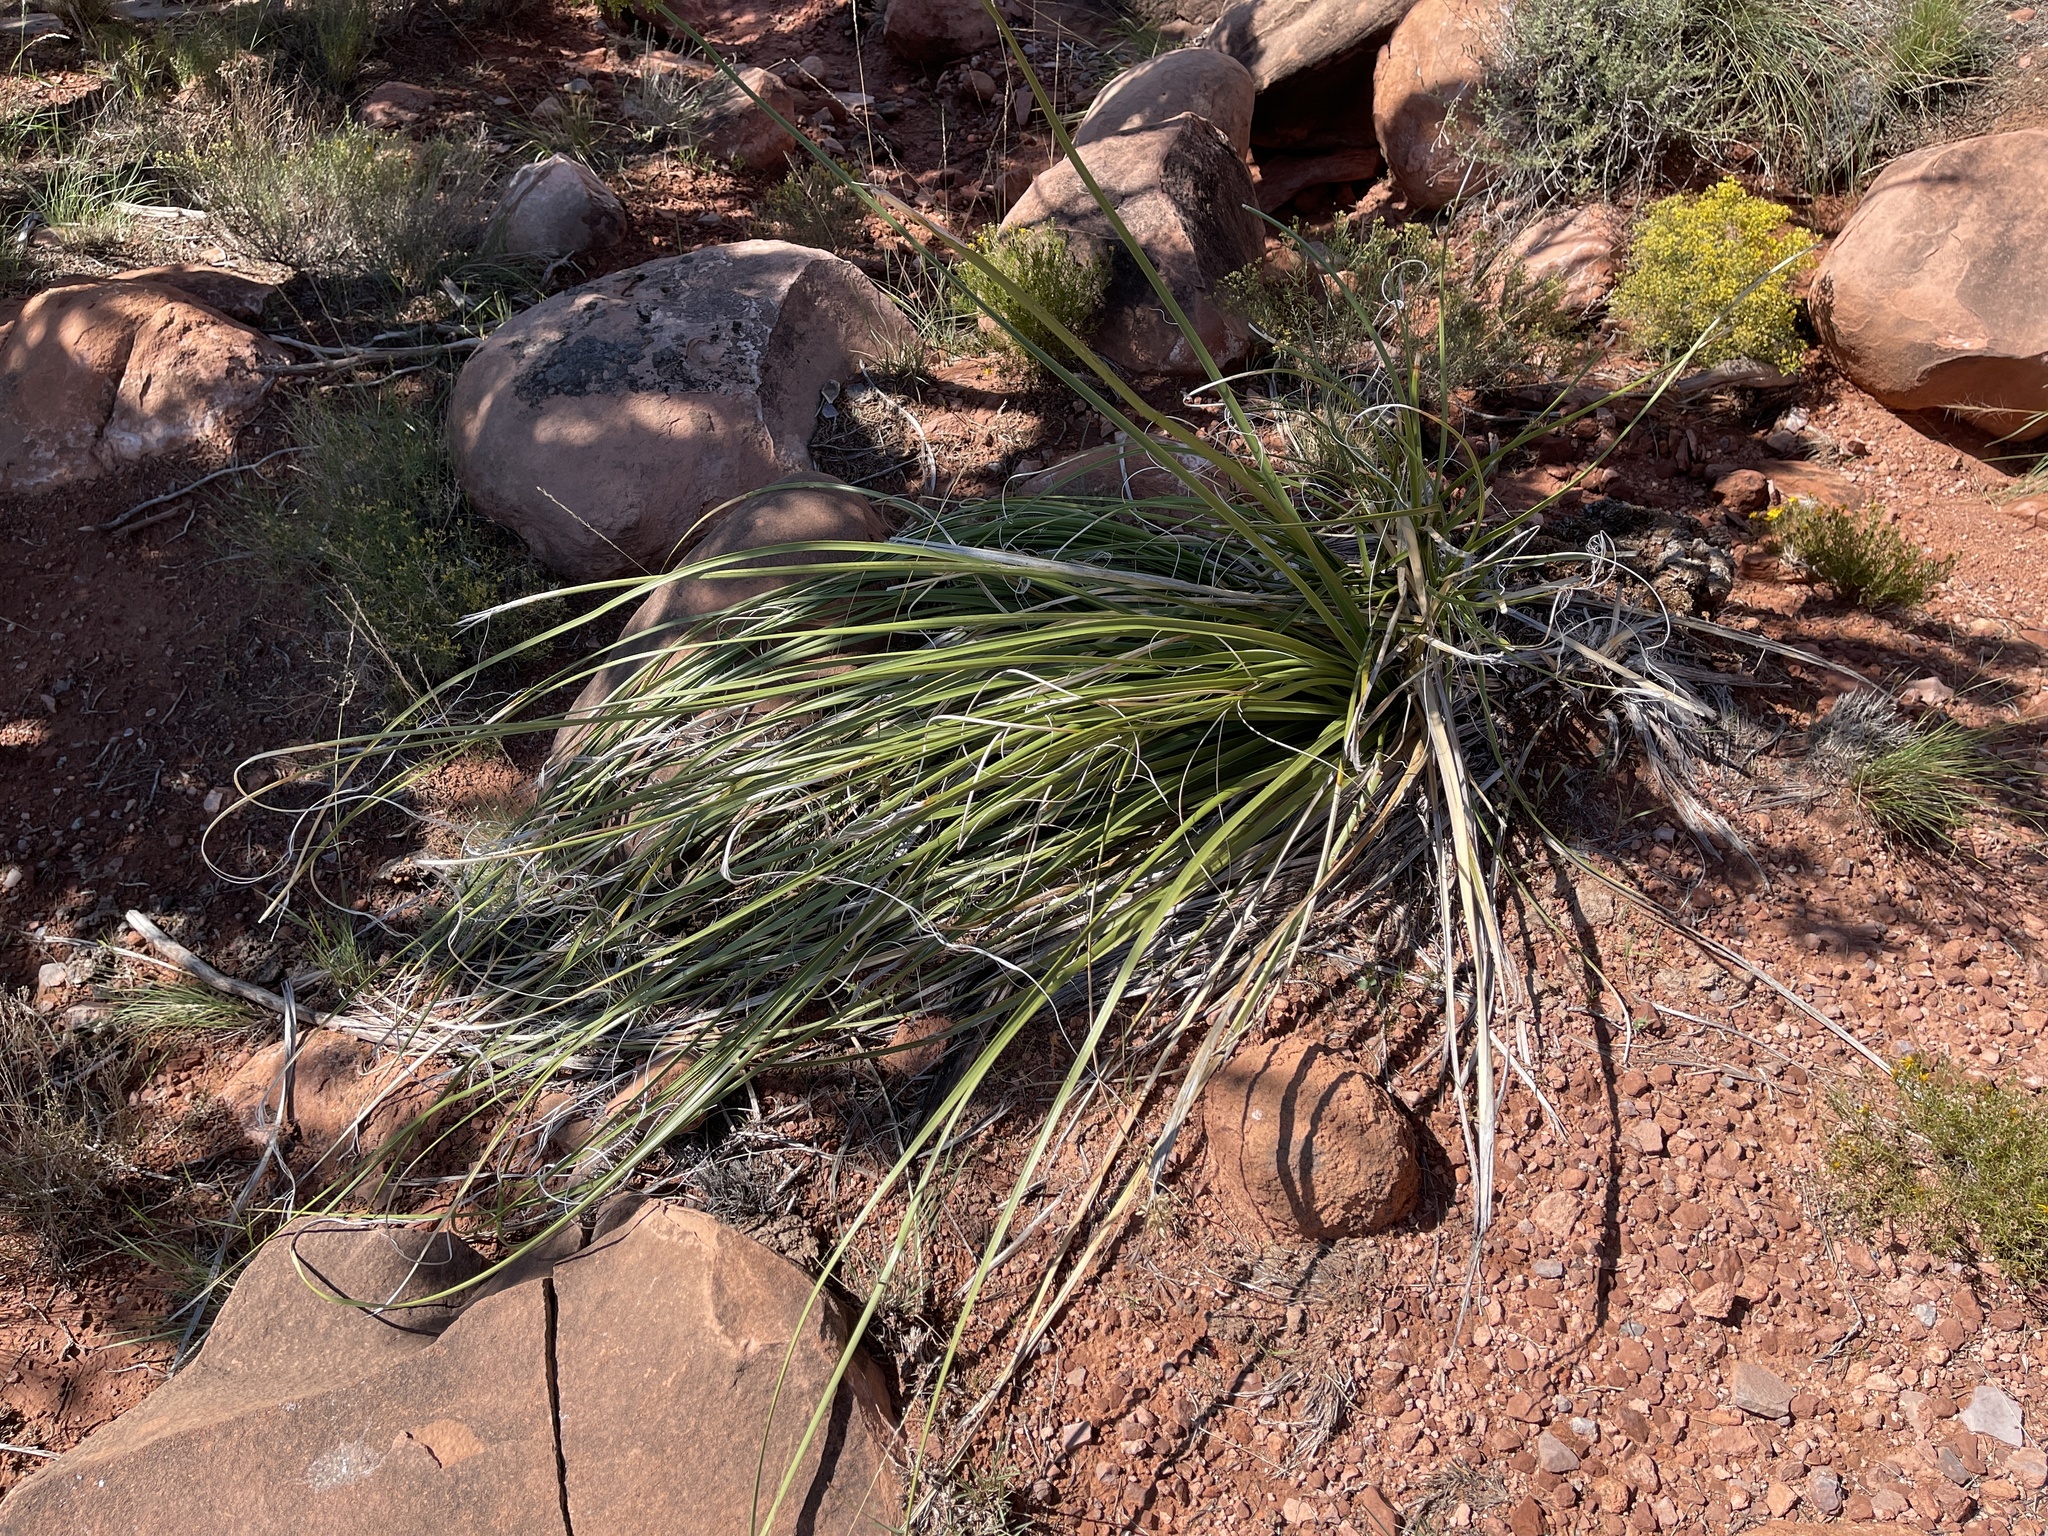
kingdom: Plantae
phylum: Tracheophyta
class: Liliopsida
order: Asparagales
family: Asparagaceae
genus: Nolina
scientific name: Nolina microcarpa
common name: Bear-grass
